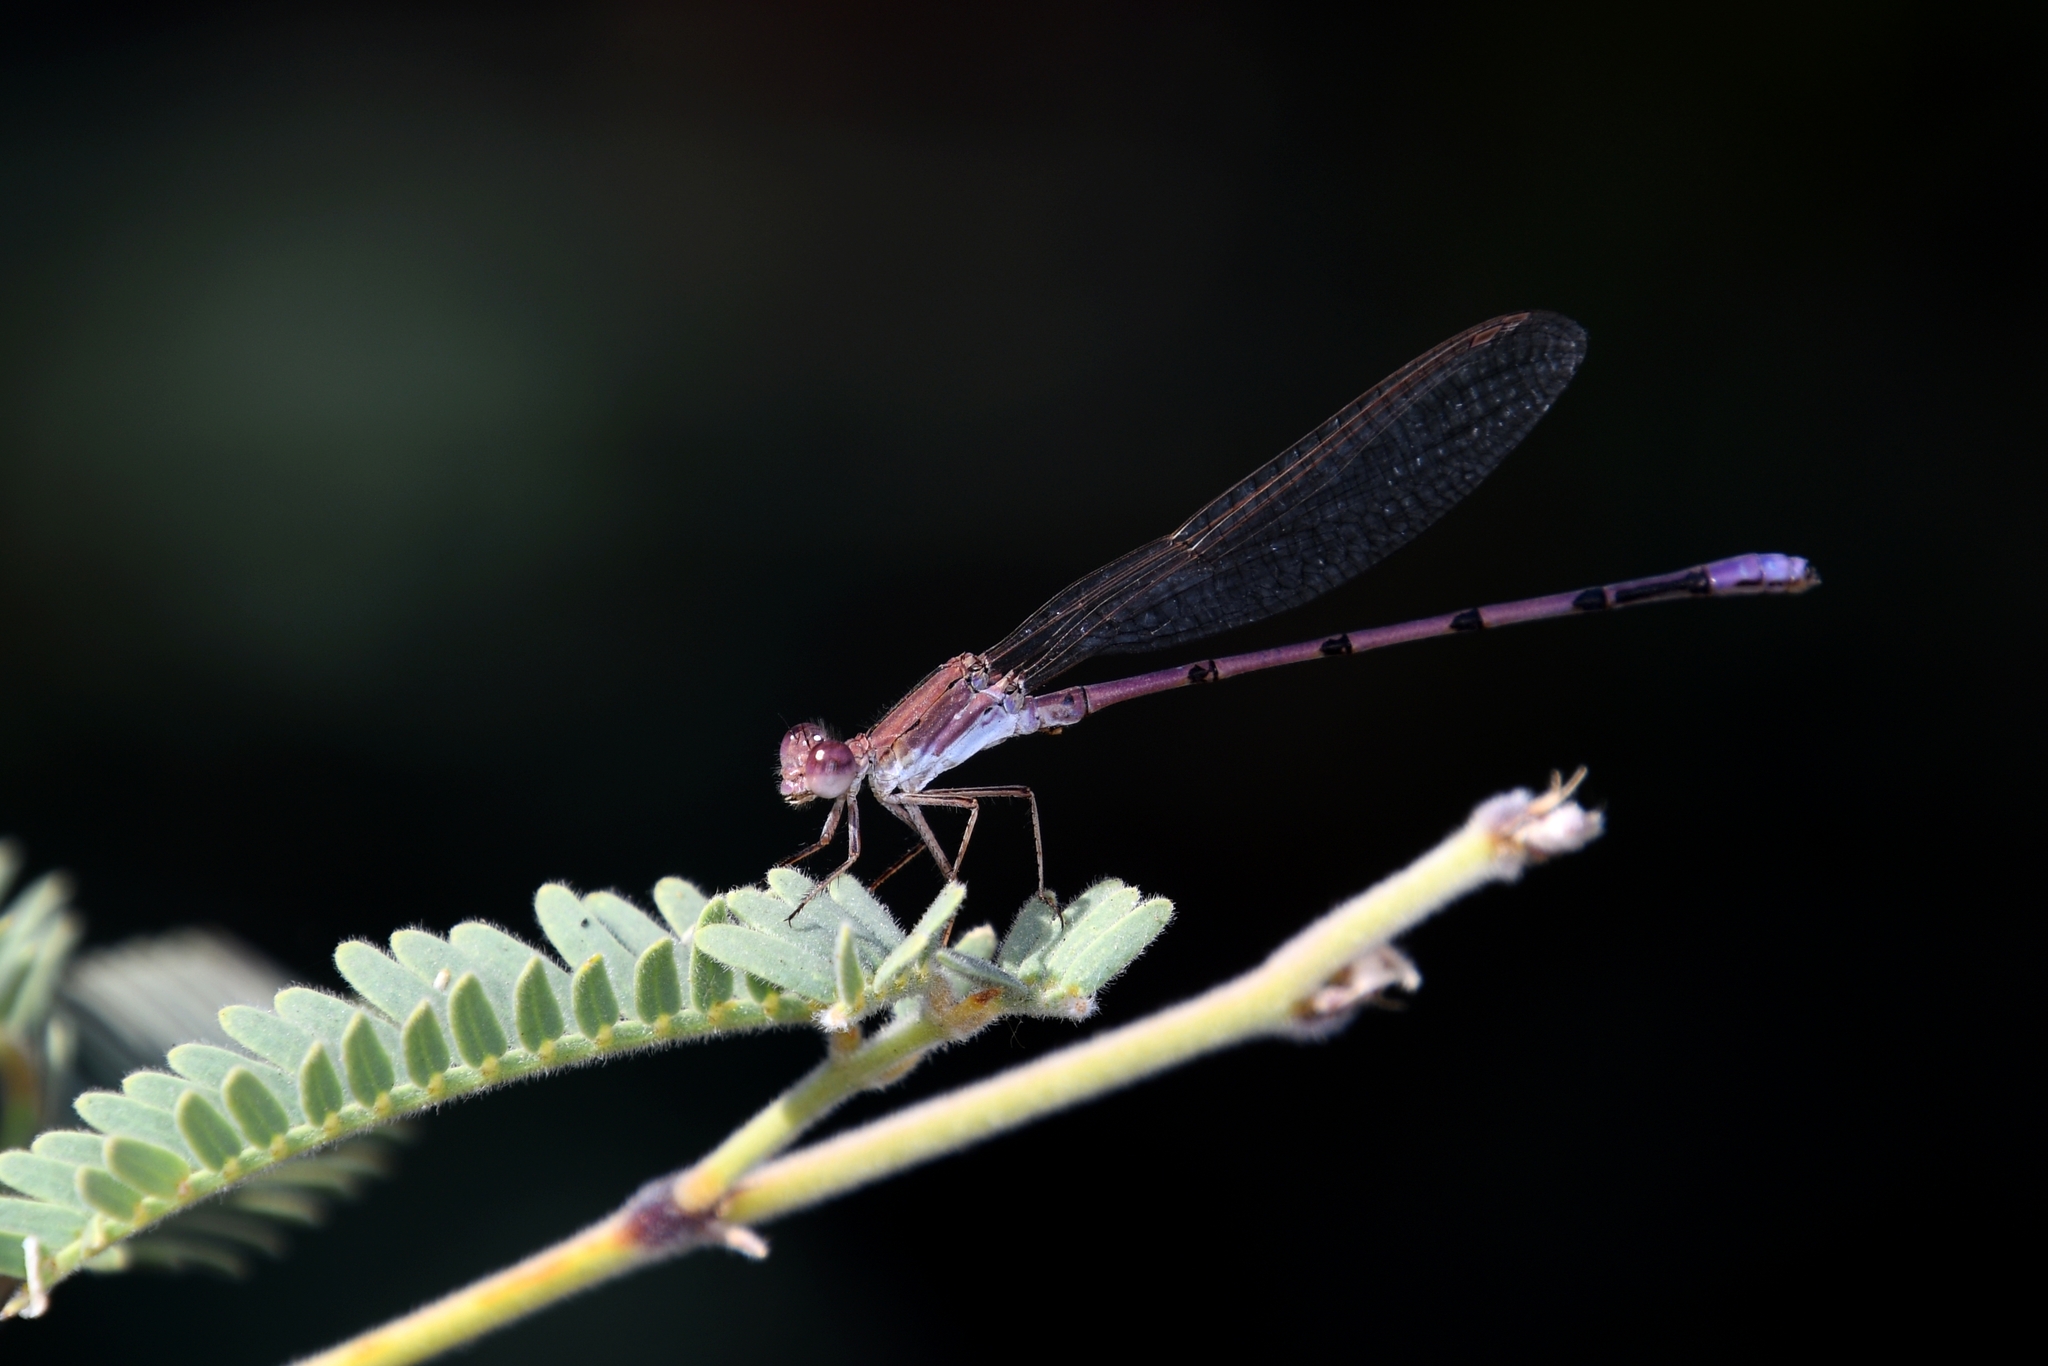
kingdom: Animalia
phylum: Arthropoda
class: Insecta
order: Odonata
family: Coenagrionidae
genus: Argia
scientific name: Argia pallens
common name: Amethyst dancer
